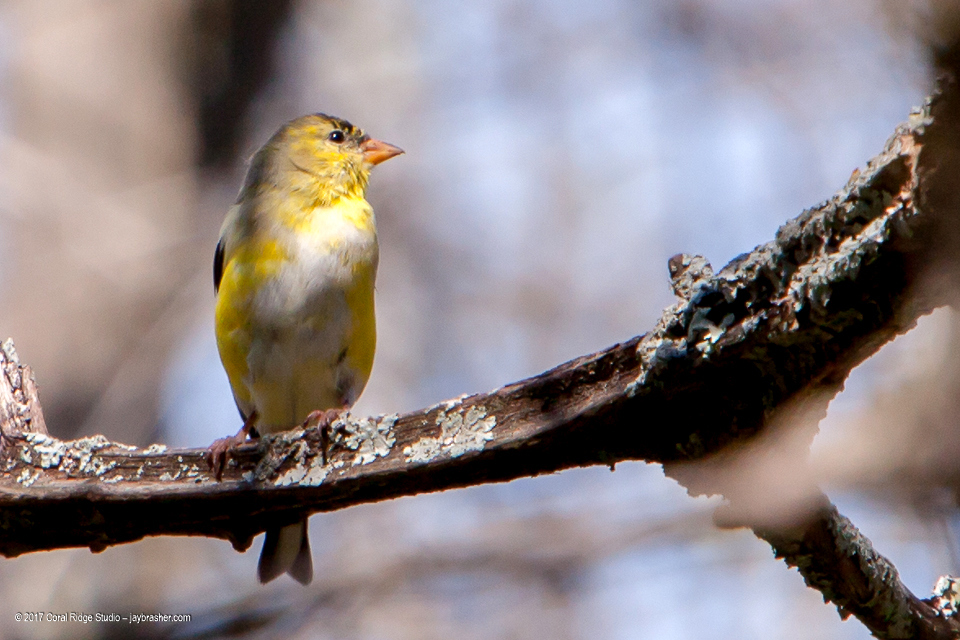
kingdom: Animalia
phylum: Chordata
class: Aves
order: Passeriformes
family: Fringillidae
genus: Spinus
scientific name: Spinus tristis
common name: American goldfinch
